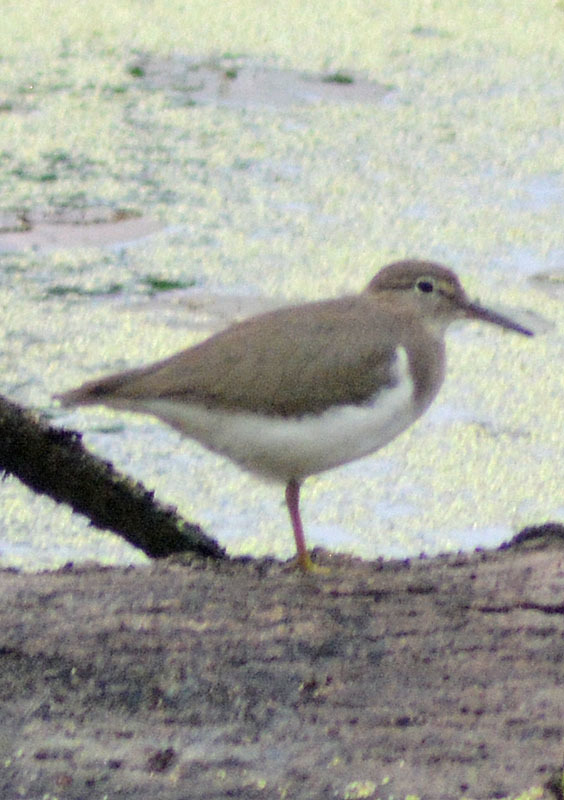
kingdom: Animalia
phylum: Chordata
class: Aves
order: Charadriiformes
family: Scolopacidae
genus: Actitis
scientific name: Actitis macularius
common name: Spotted sandpiper
